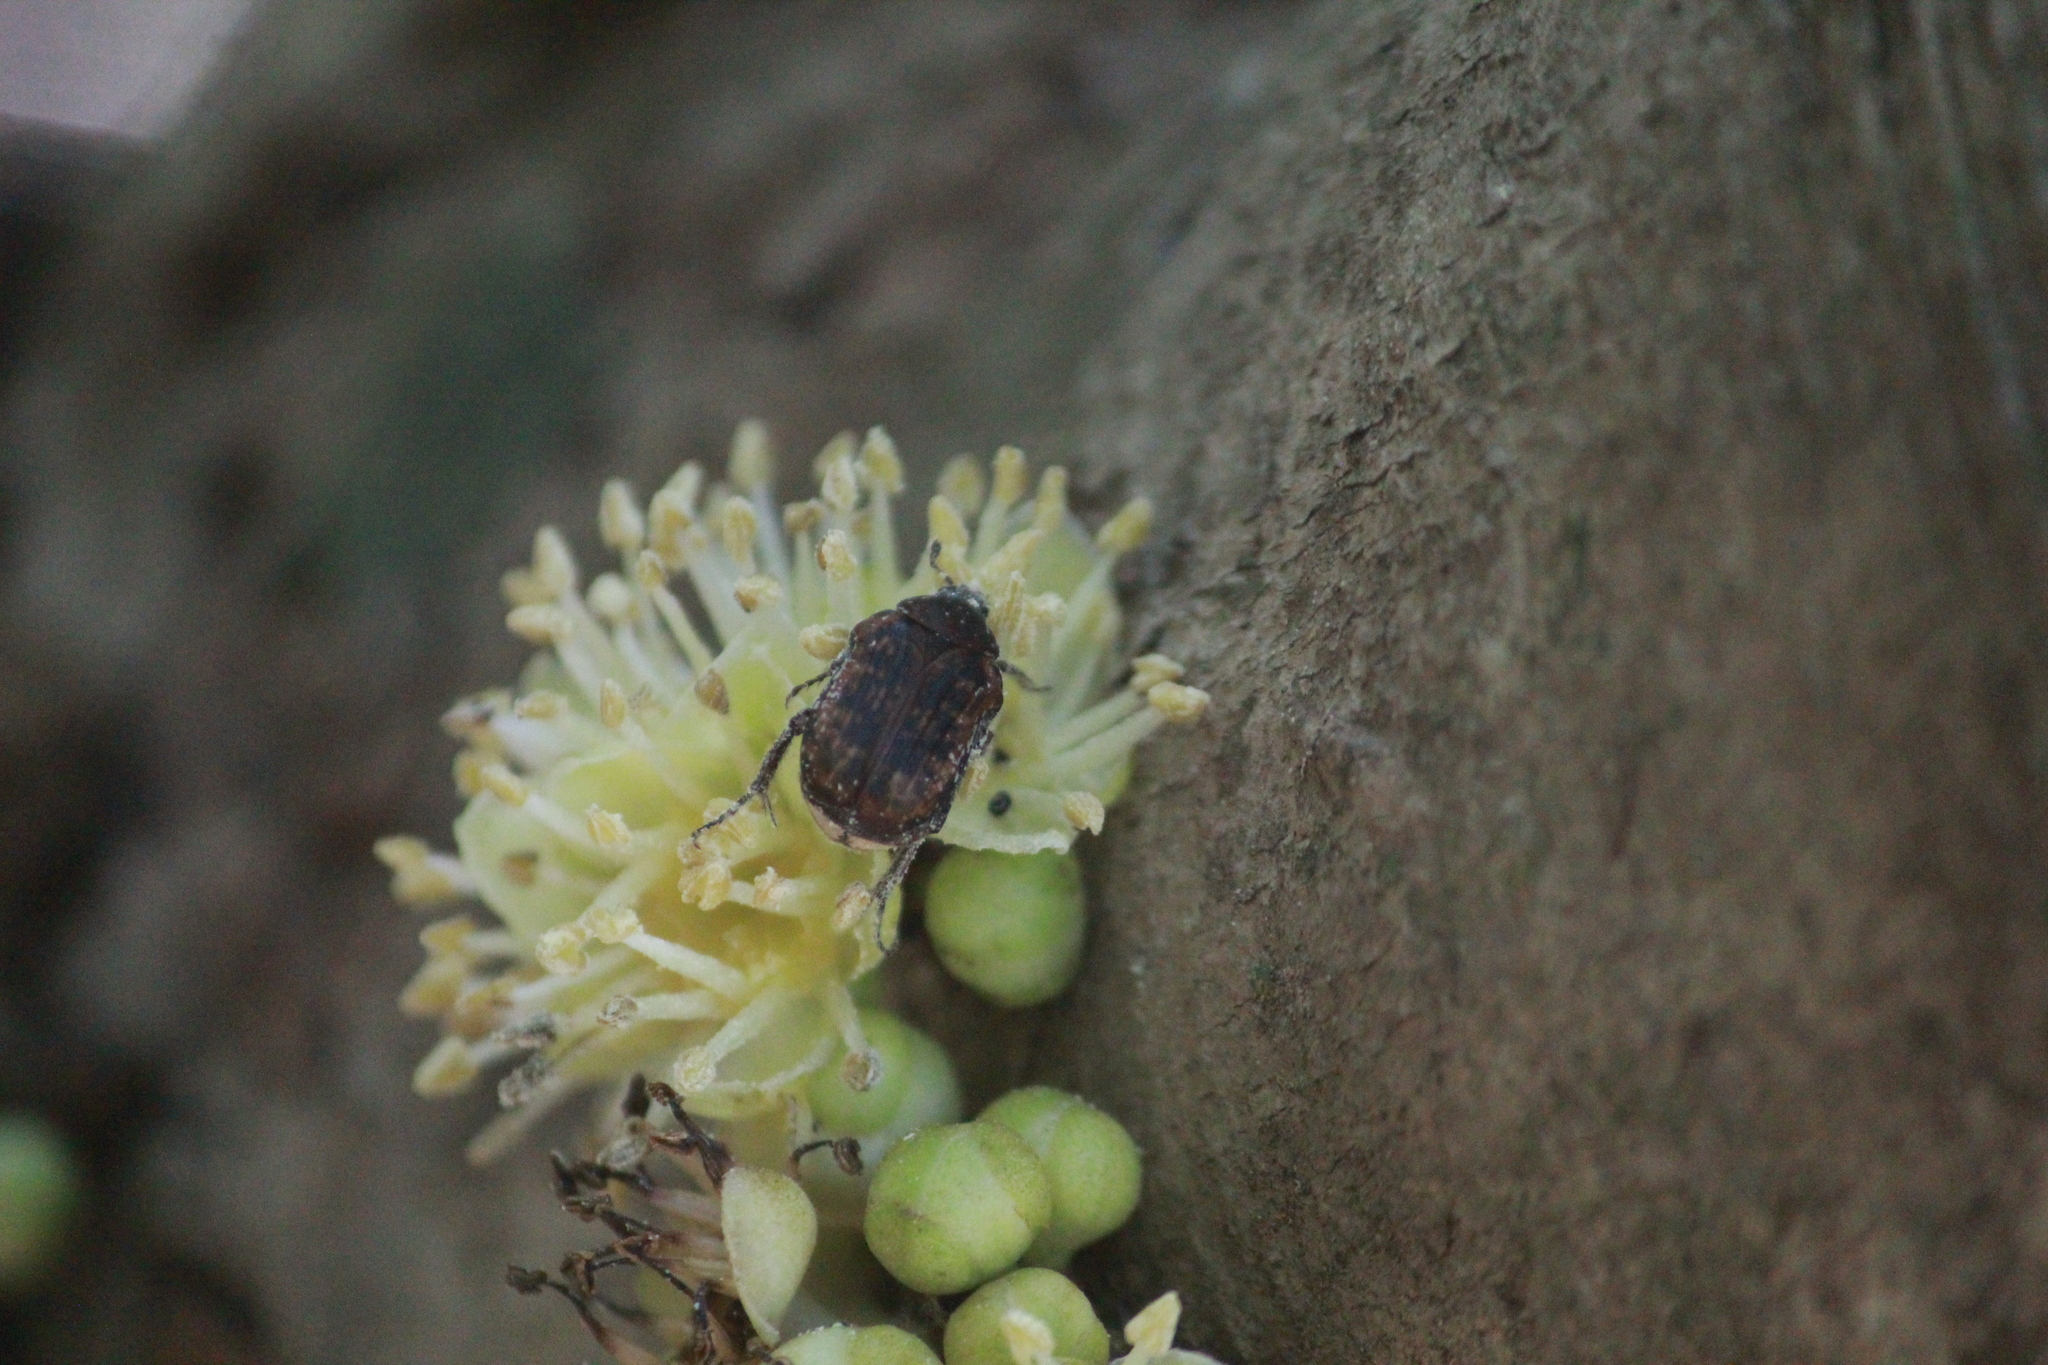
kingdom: Animalia
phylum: Arthropoda
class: Insecta
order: Coleoptera
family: Scarabaeidae
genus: Atrichelaphinis
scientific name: Atrichelaphinis tigrina
